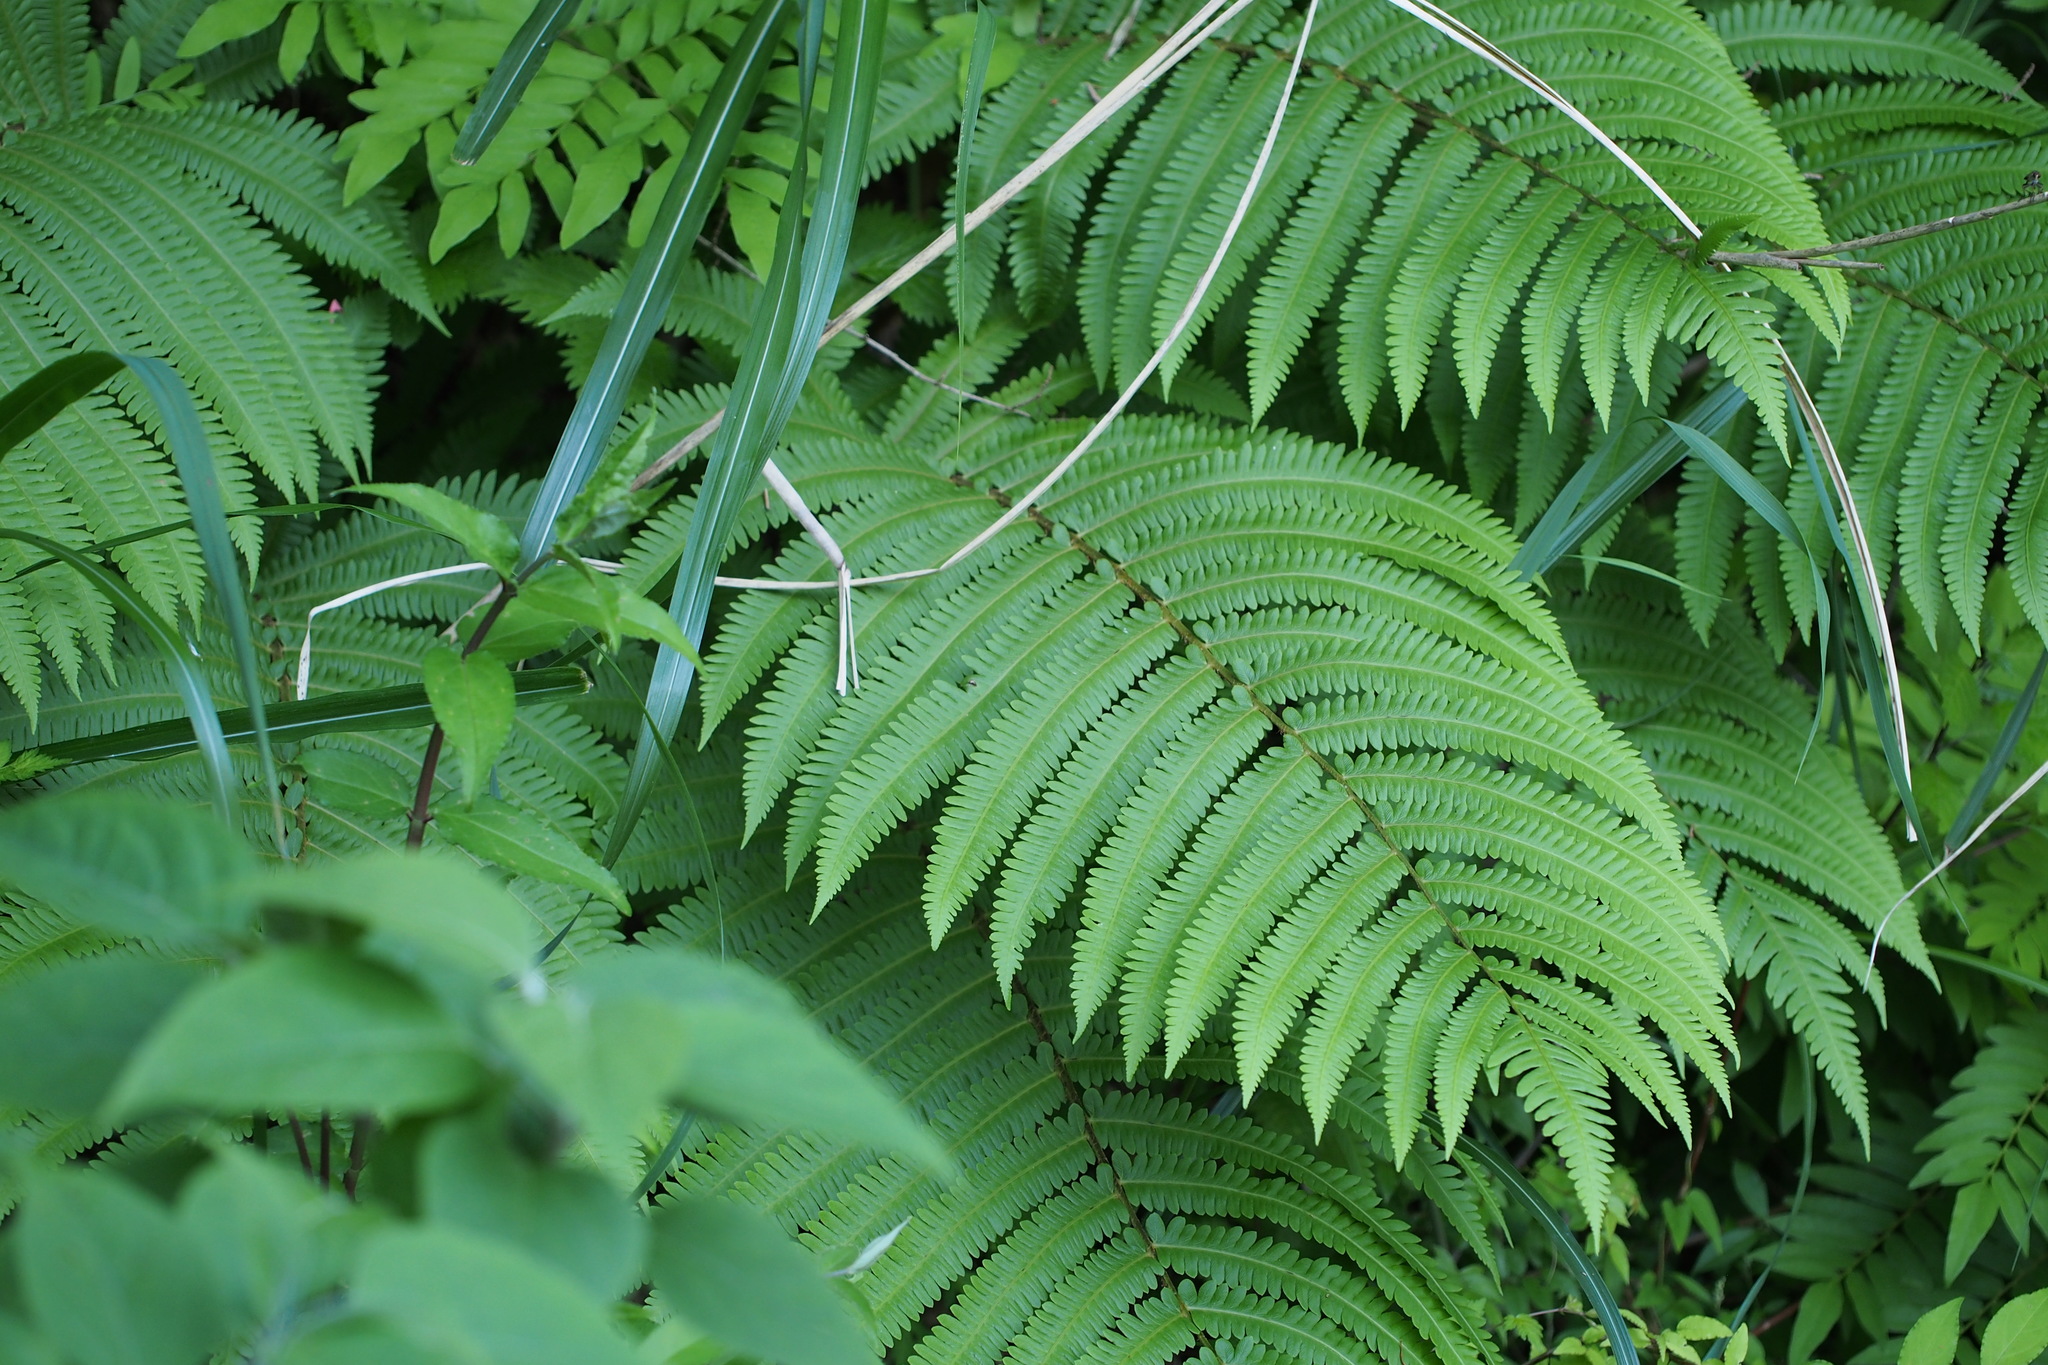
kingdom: Plantae
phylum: Tracheophyta
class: Polypodiopsida
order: Polypodiales
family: Onocleaceae
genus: Pentarhizidium
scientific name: Pentarhizidium orientale
